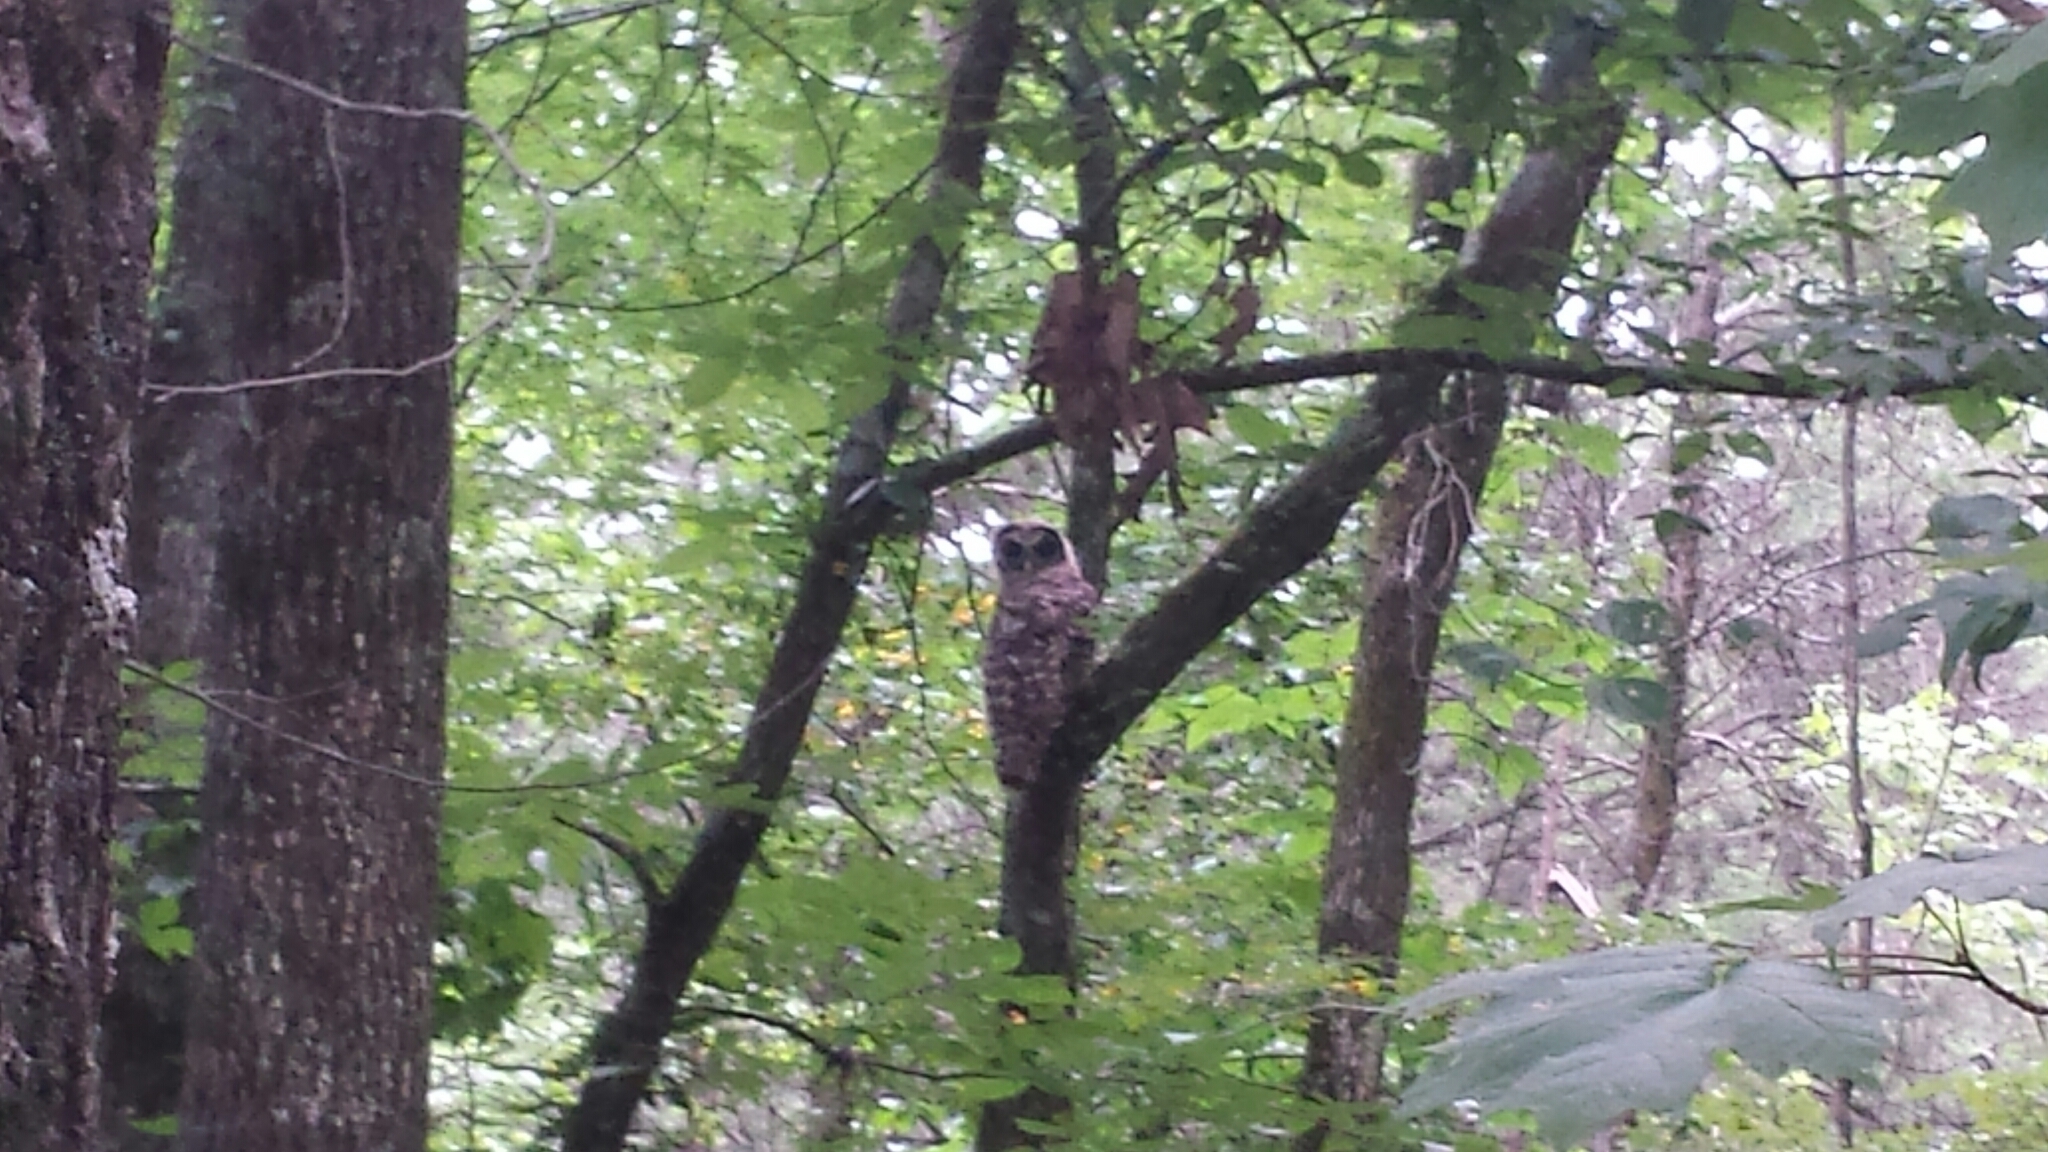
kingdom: Animalia
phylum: Chordata
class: Aves
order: Strigiformes
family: Strigidae
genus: Strix
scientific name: Strix varia
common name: Barred owl
